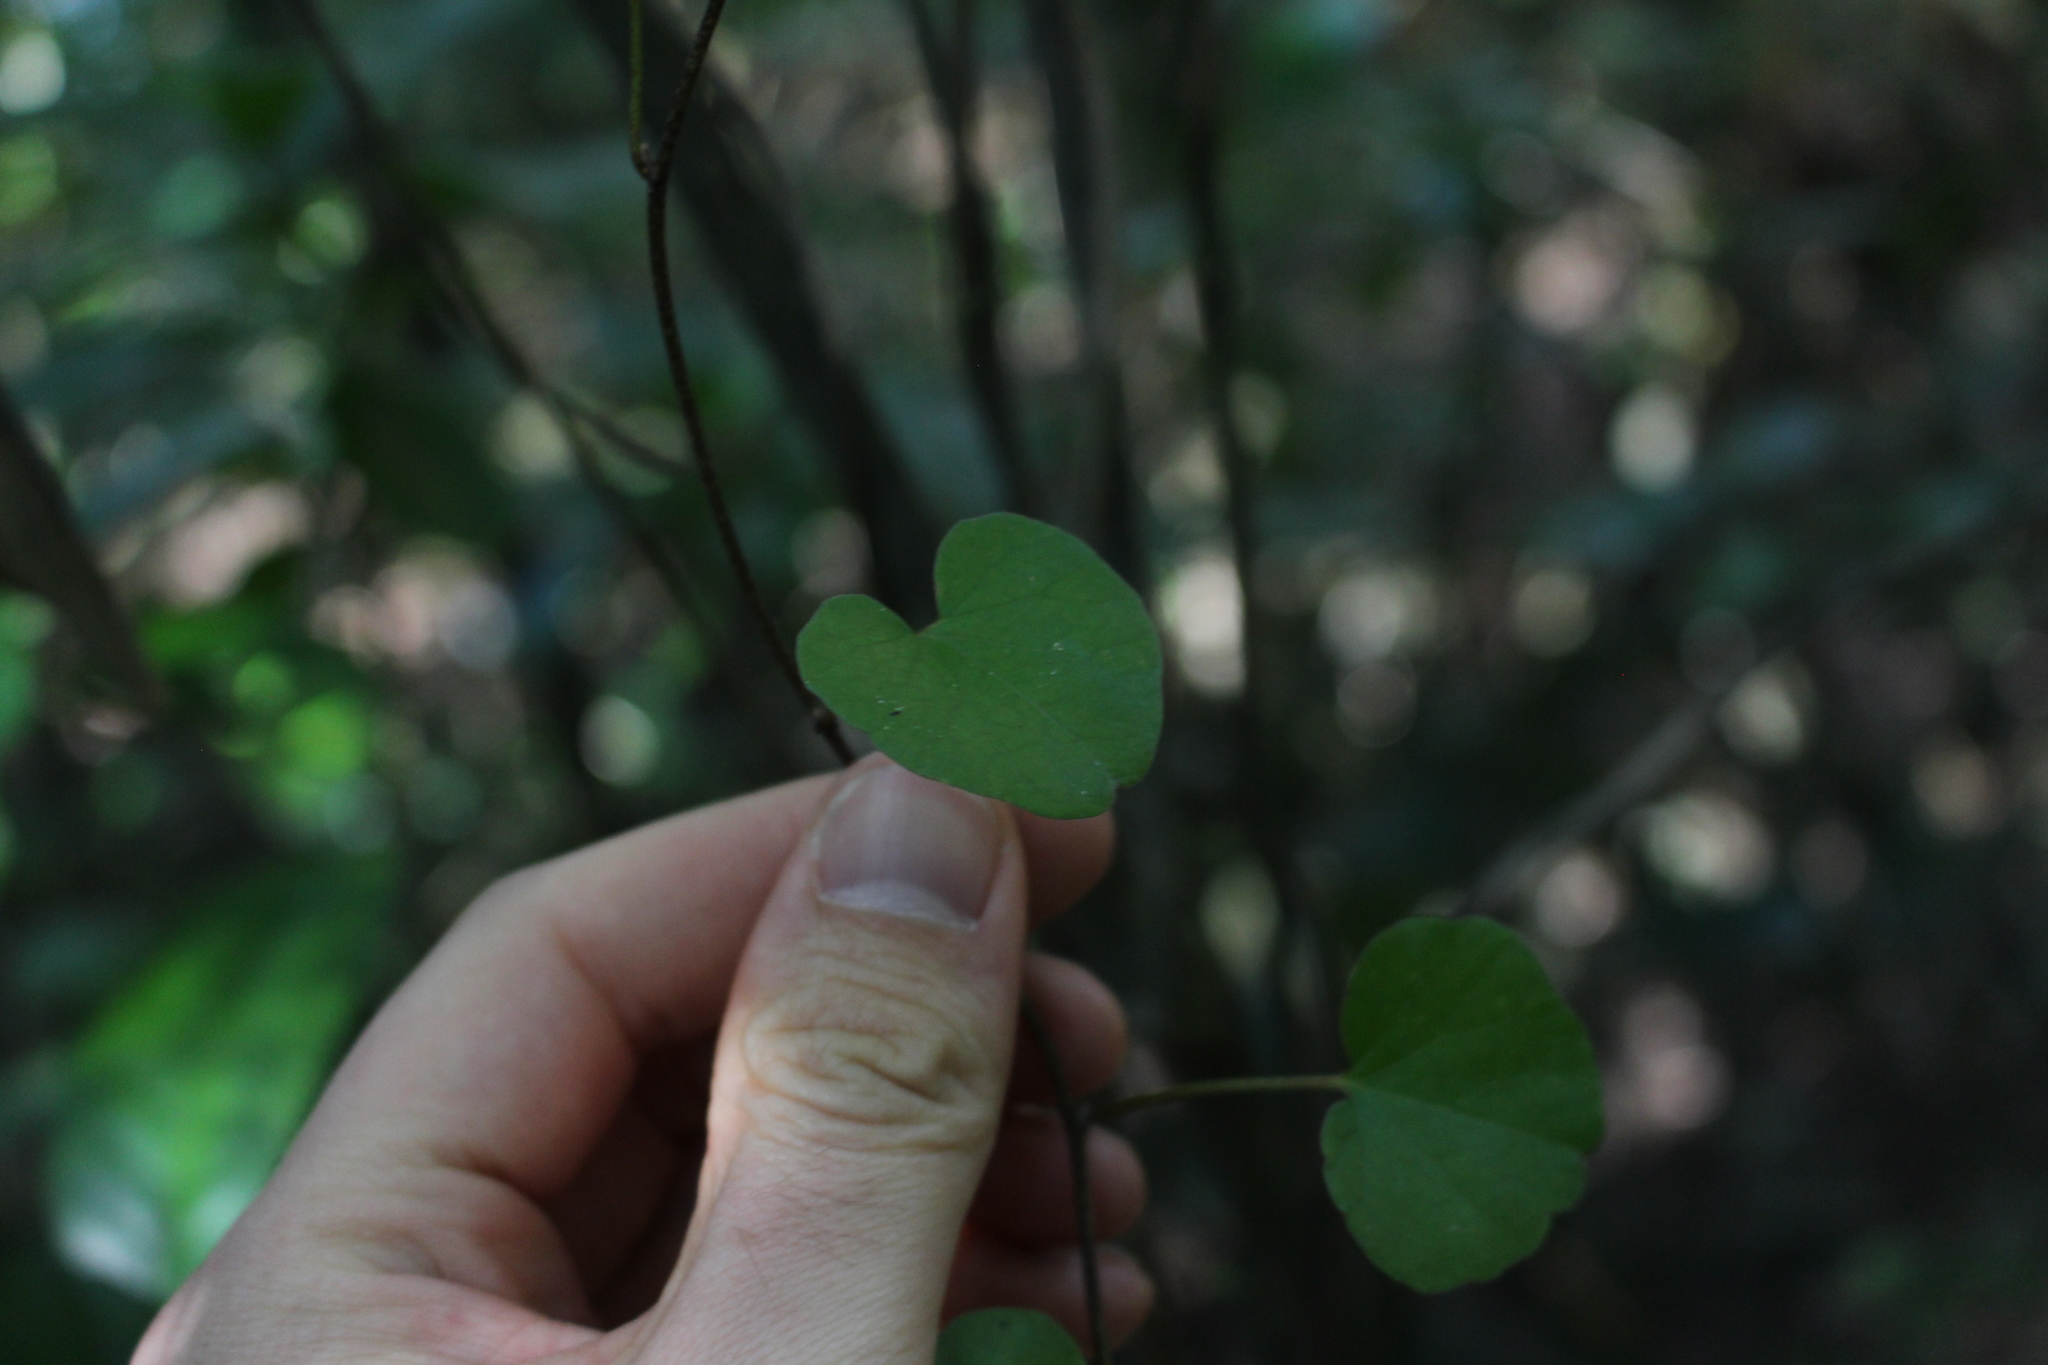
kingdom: Plantae
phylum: Tracheophyta
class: Magnoliopsida
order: Solanales
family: Convolvulaceae
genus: Calystegia
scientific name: Calystegia tuguriorum
